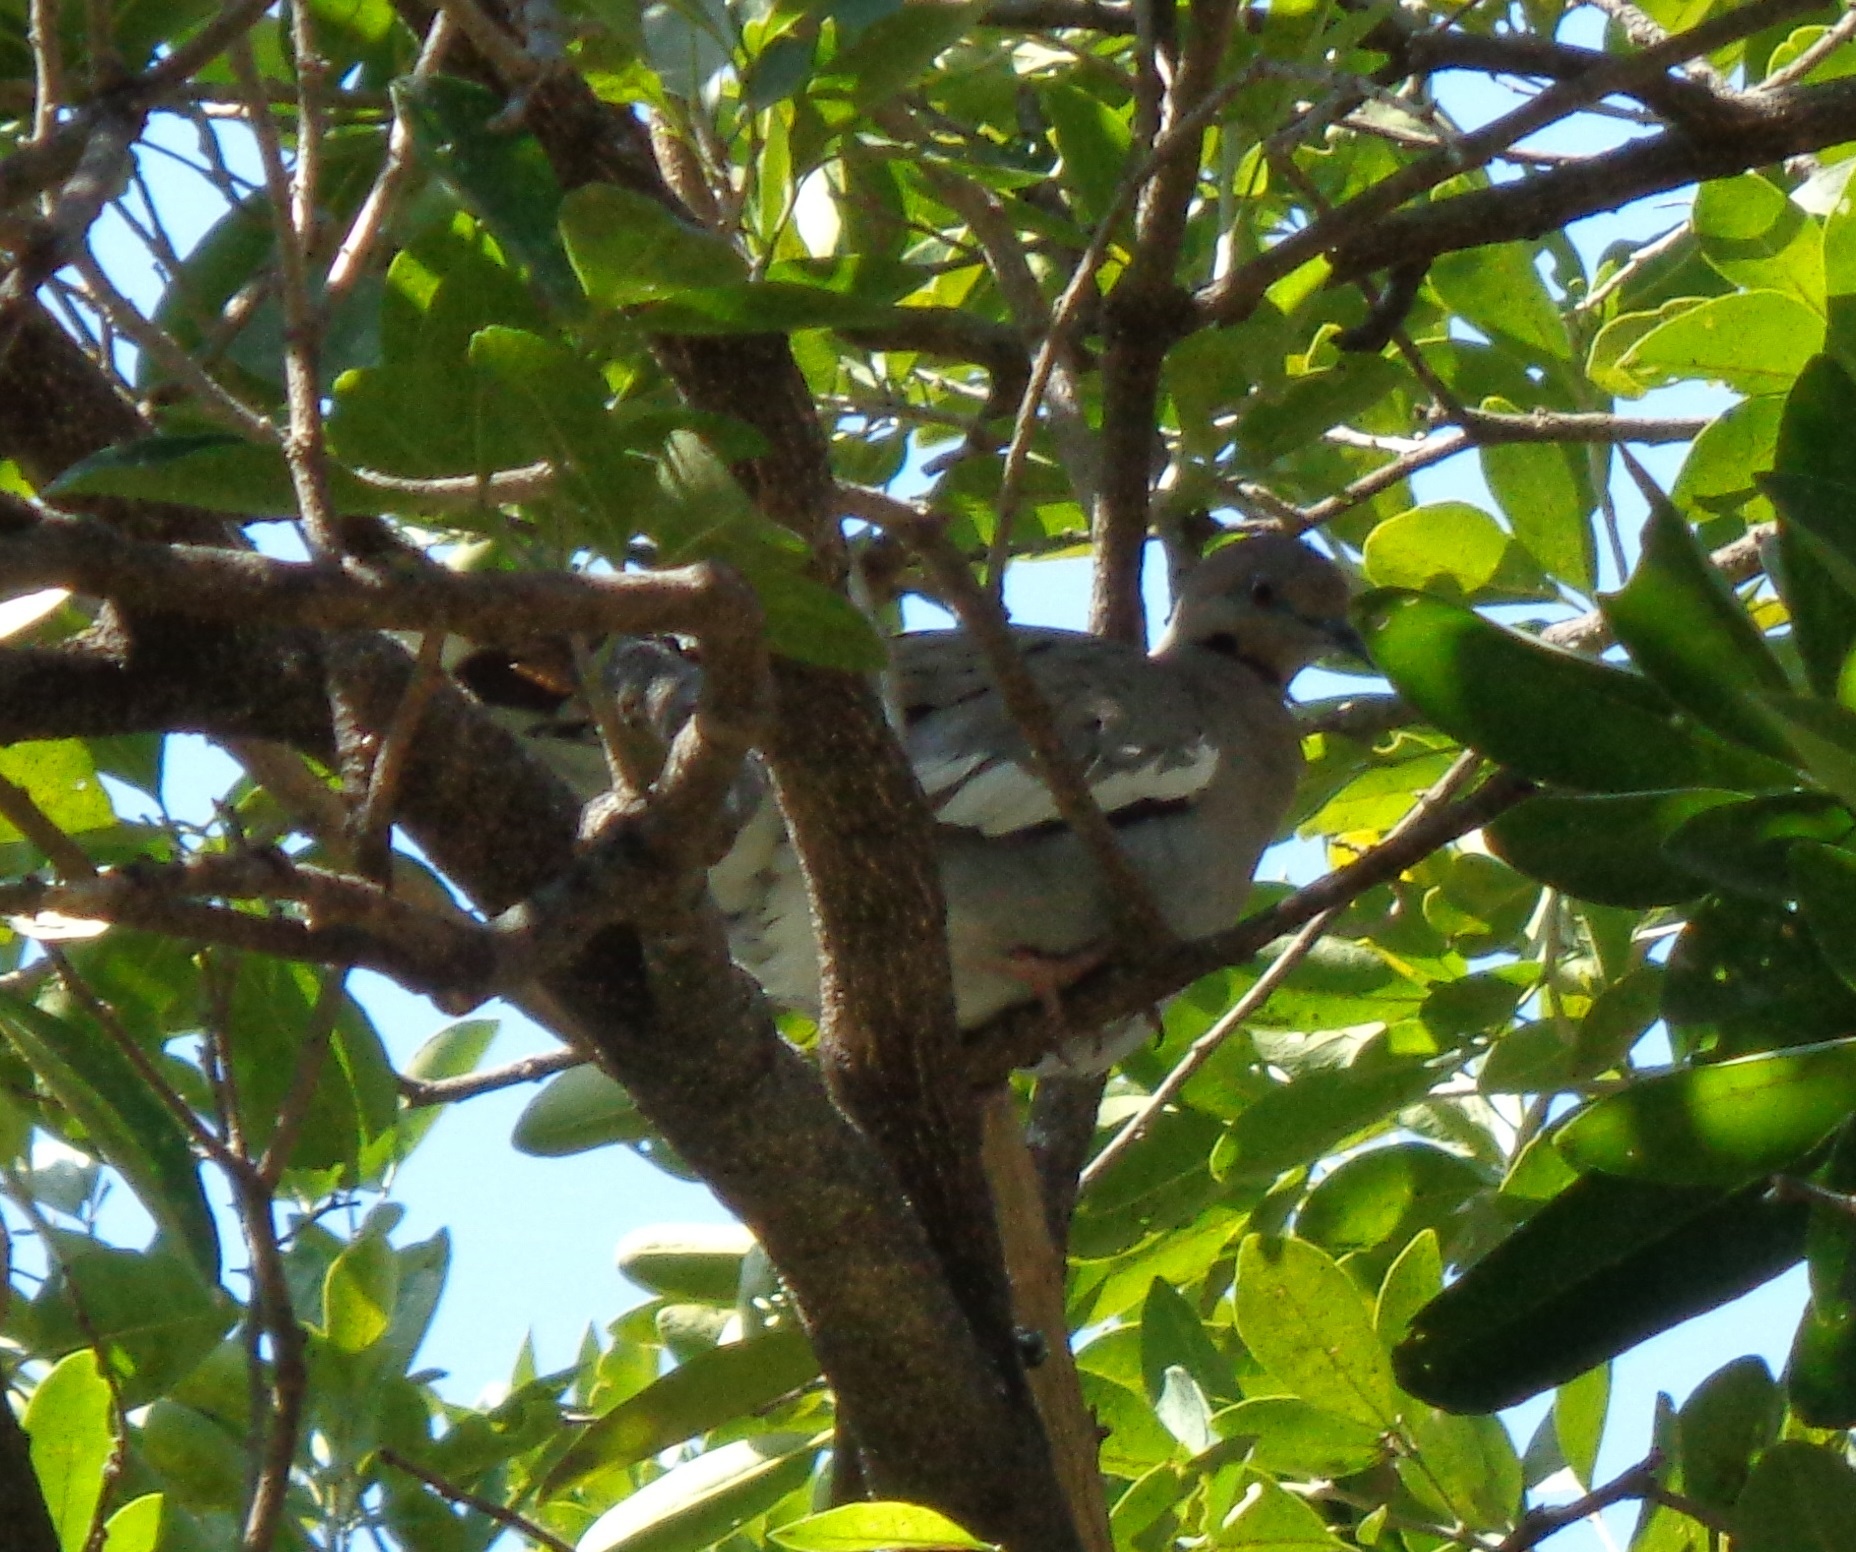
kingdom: Animalia
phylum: Chordata
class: Aves
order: Columbiformes
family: Columbidae
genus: Zenaida
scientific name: Zenaida asiatica
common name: White-winged dove
